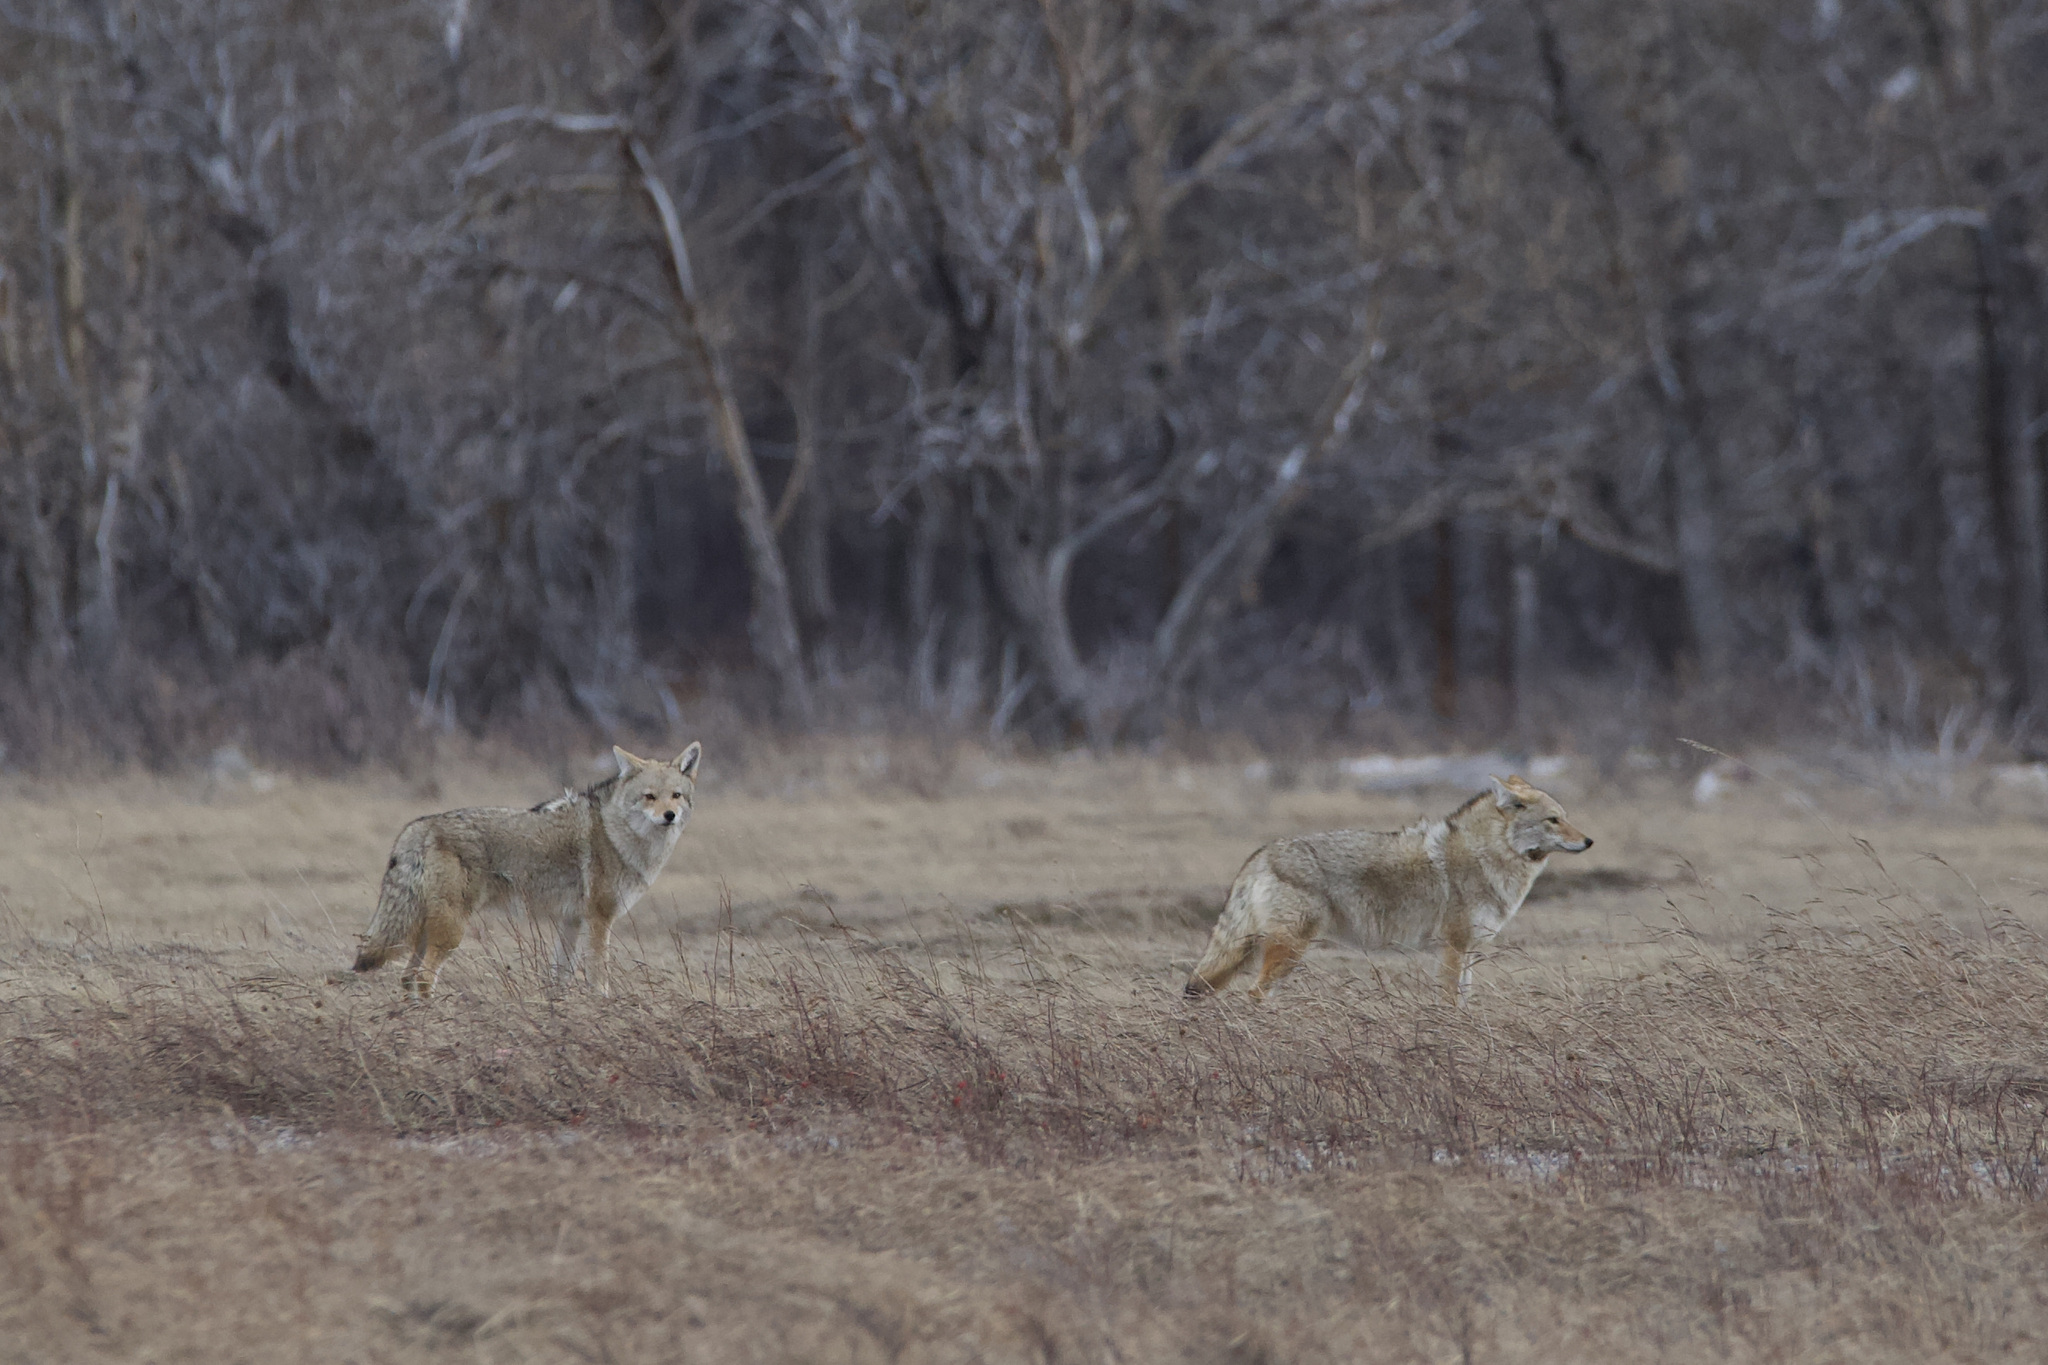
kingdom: Animalia
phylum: Chordata
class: Mammalia
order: Carnivora
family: Canidae
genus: Canis
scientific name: Canis latrans
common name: Coyote
